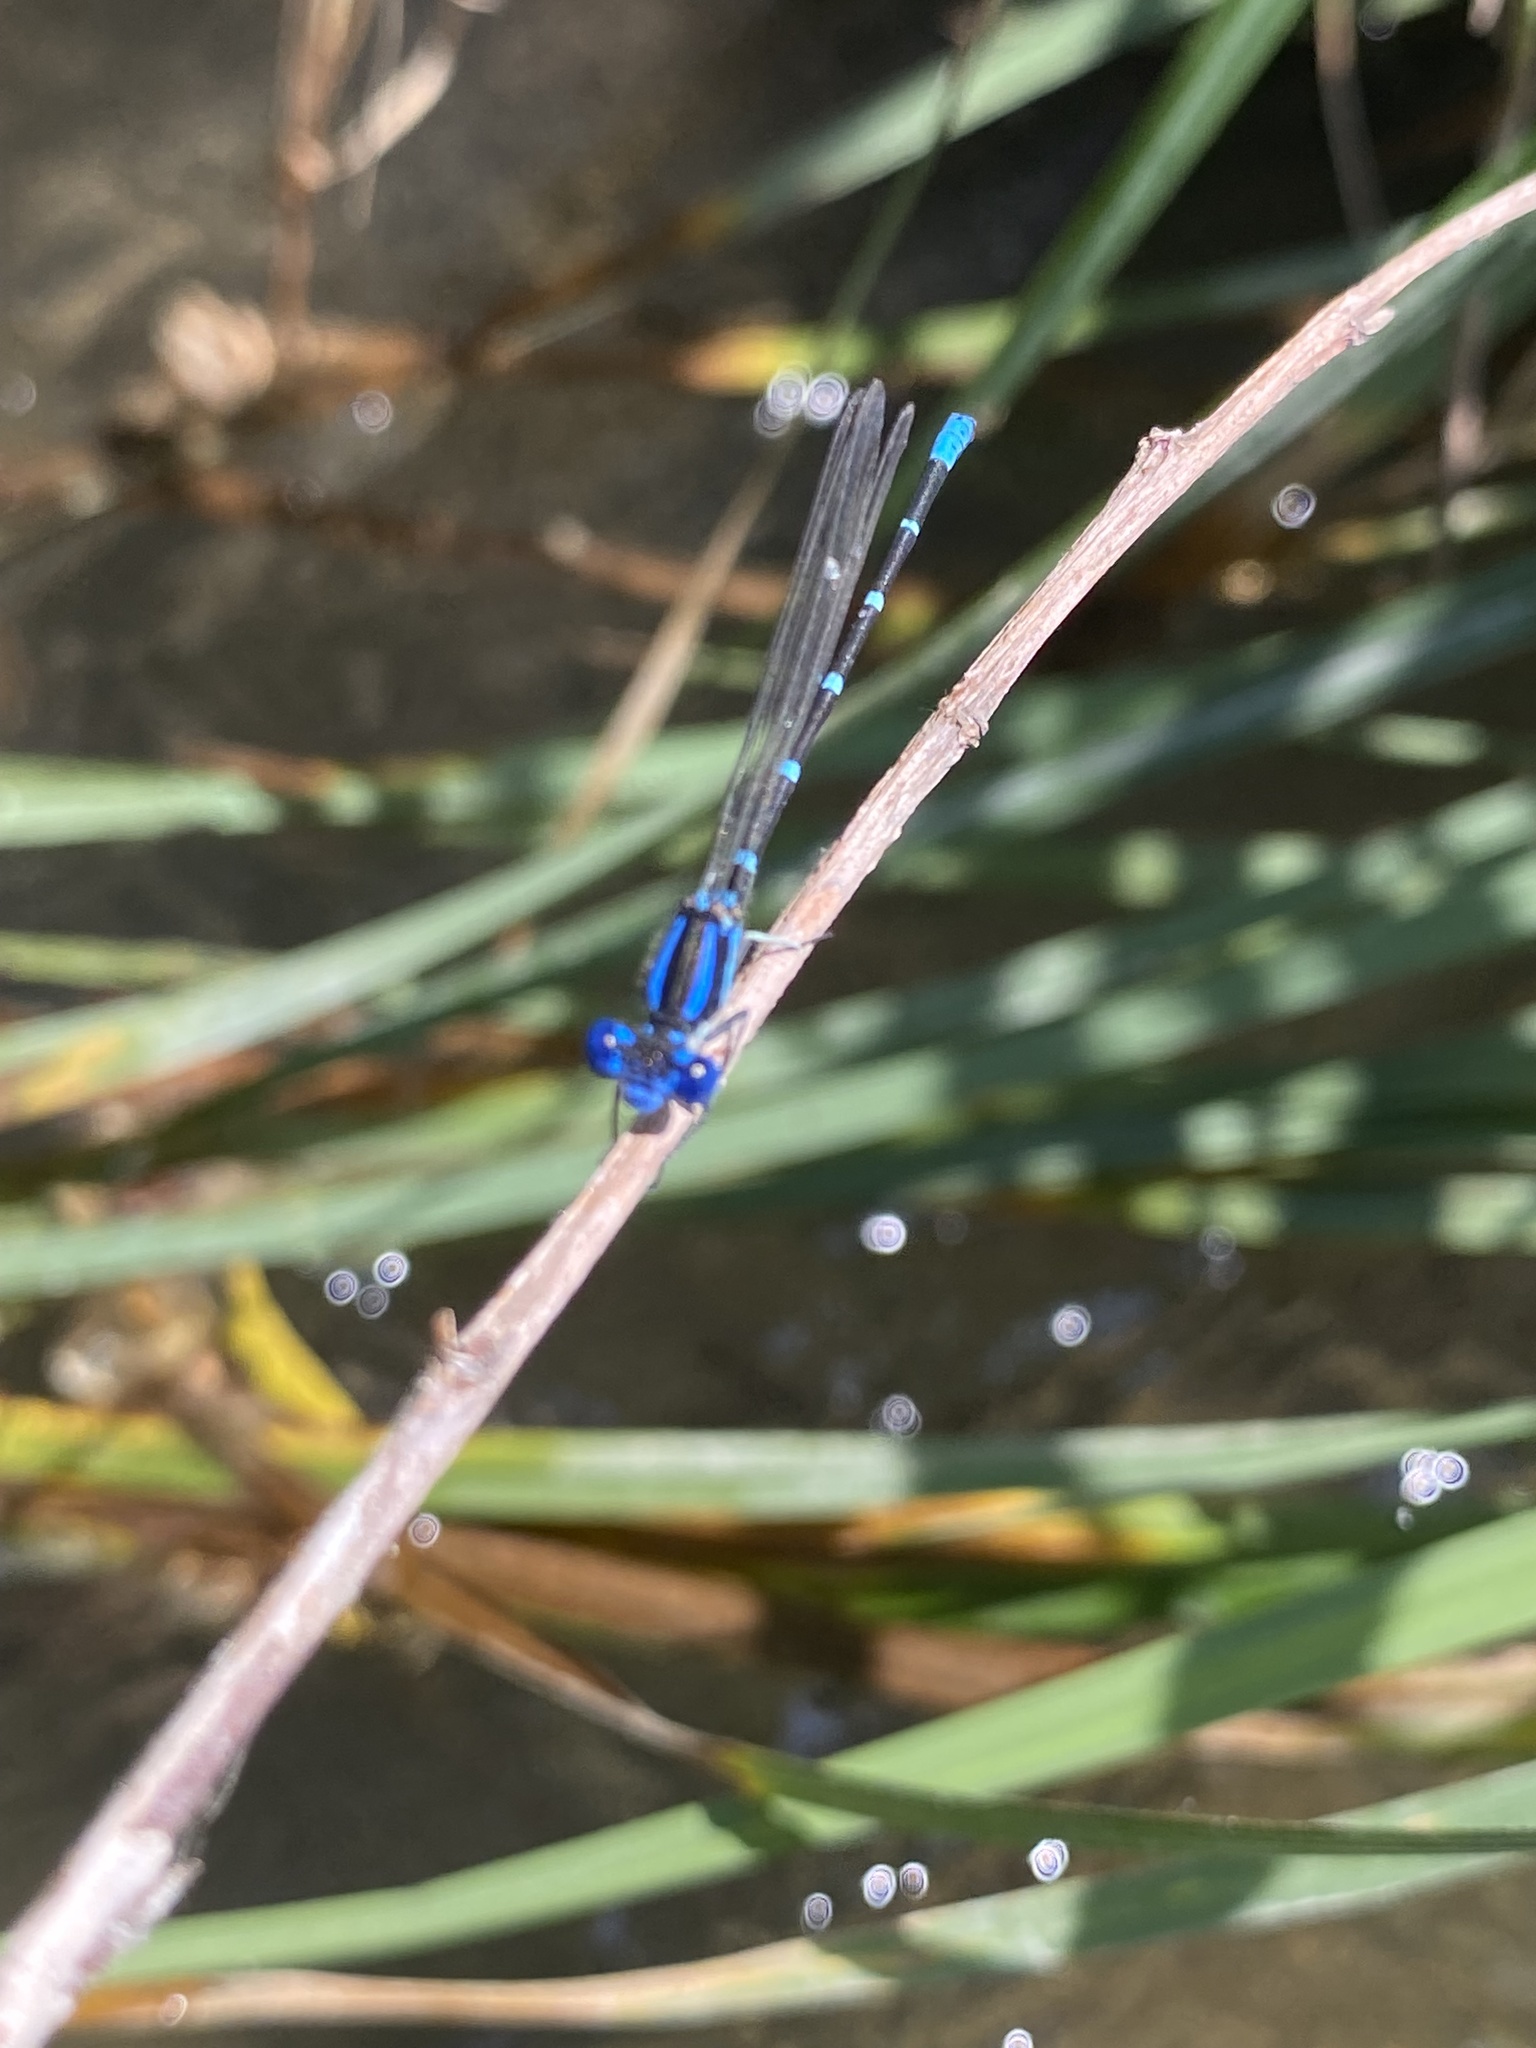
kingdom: Animalia
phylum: Arthropoda
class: Insecta
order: Odonata
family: Coenagrionidae
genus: Argia
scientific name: Argia sedula
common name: Blue-ringed dancer
